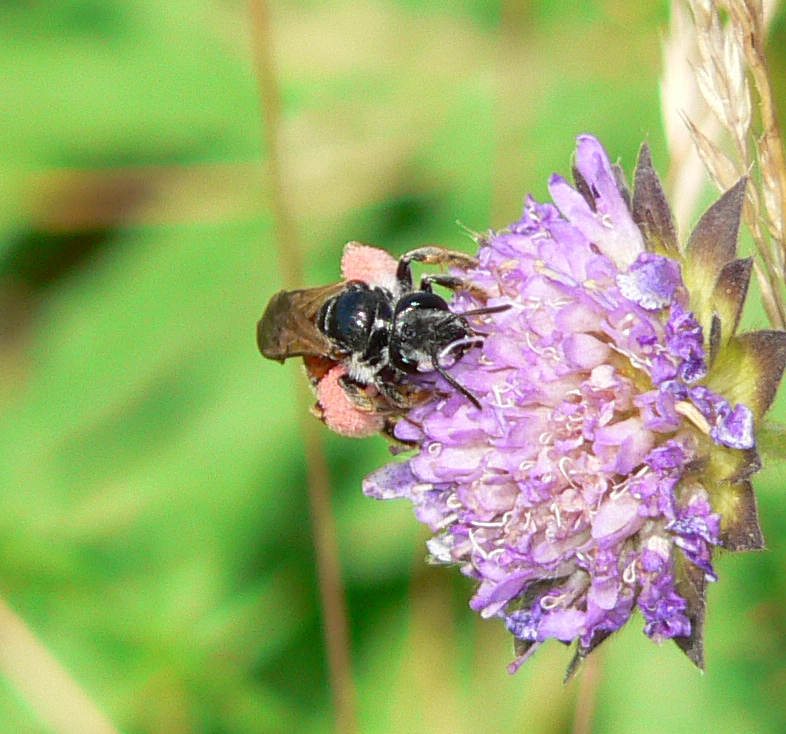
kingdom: Animalia
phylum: Arthropoda
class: Insecta
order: Hymenoptera
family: Andrenidae
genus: Andrena
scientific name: Andrena hattorfiana
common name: Large scabious mining bee
